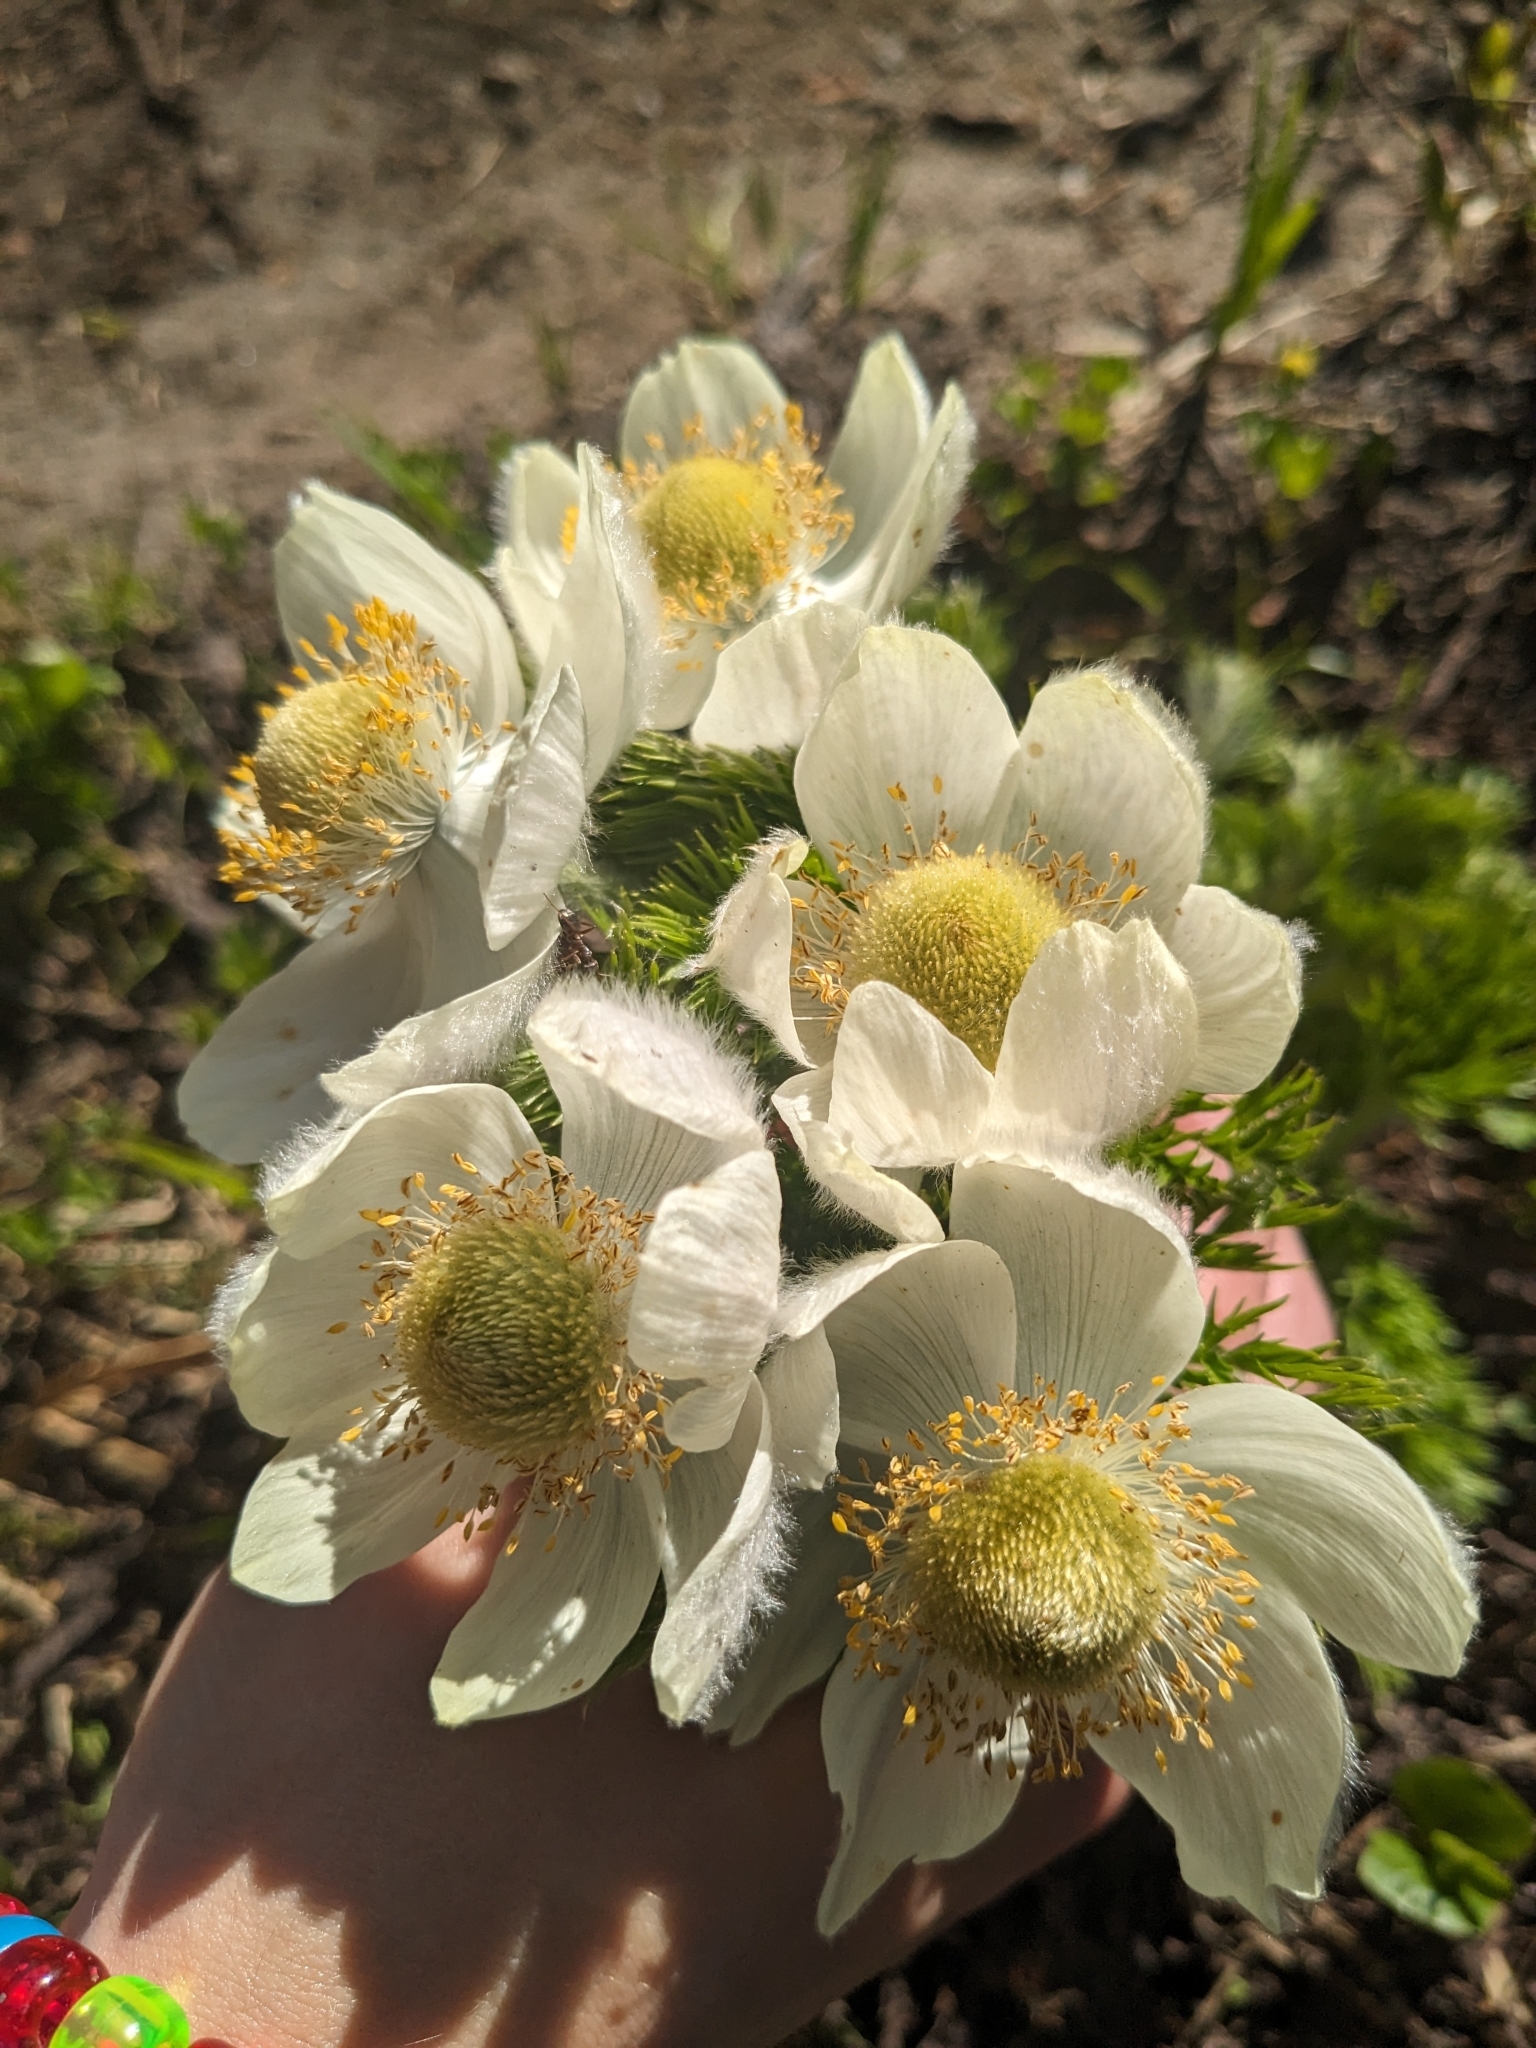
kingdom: Plantae
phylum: Tracheophyta
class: Magnoliopsida
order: Ranunculales
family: Ranunculaceae
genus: Pulsatilla
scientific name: Pulsatilla occidentalis
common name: Mountain pasqueflower
